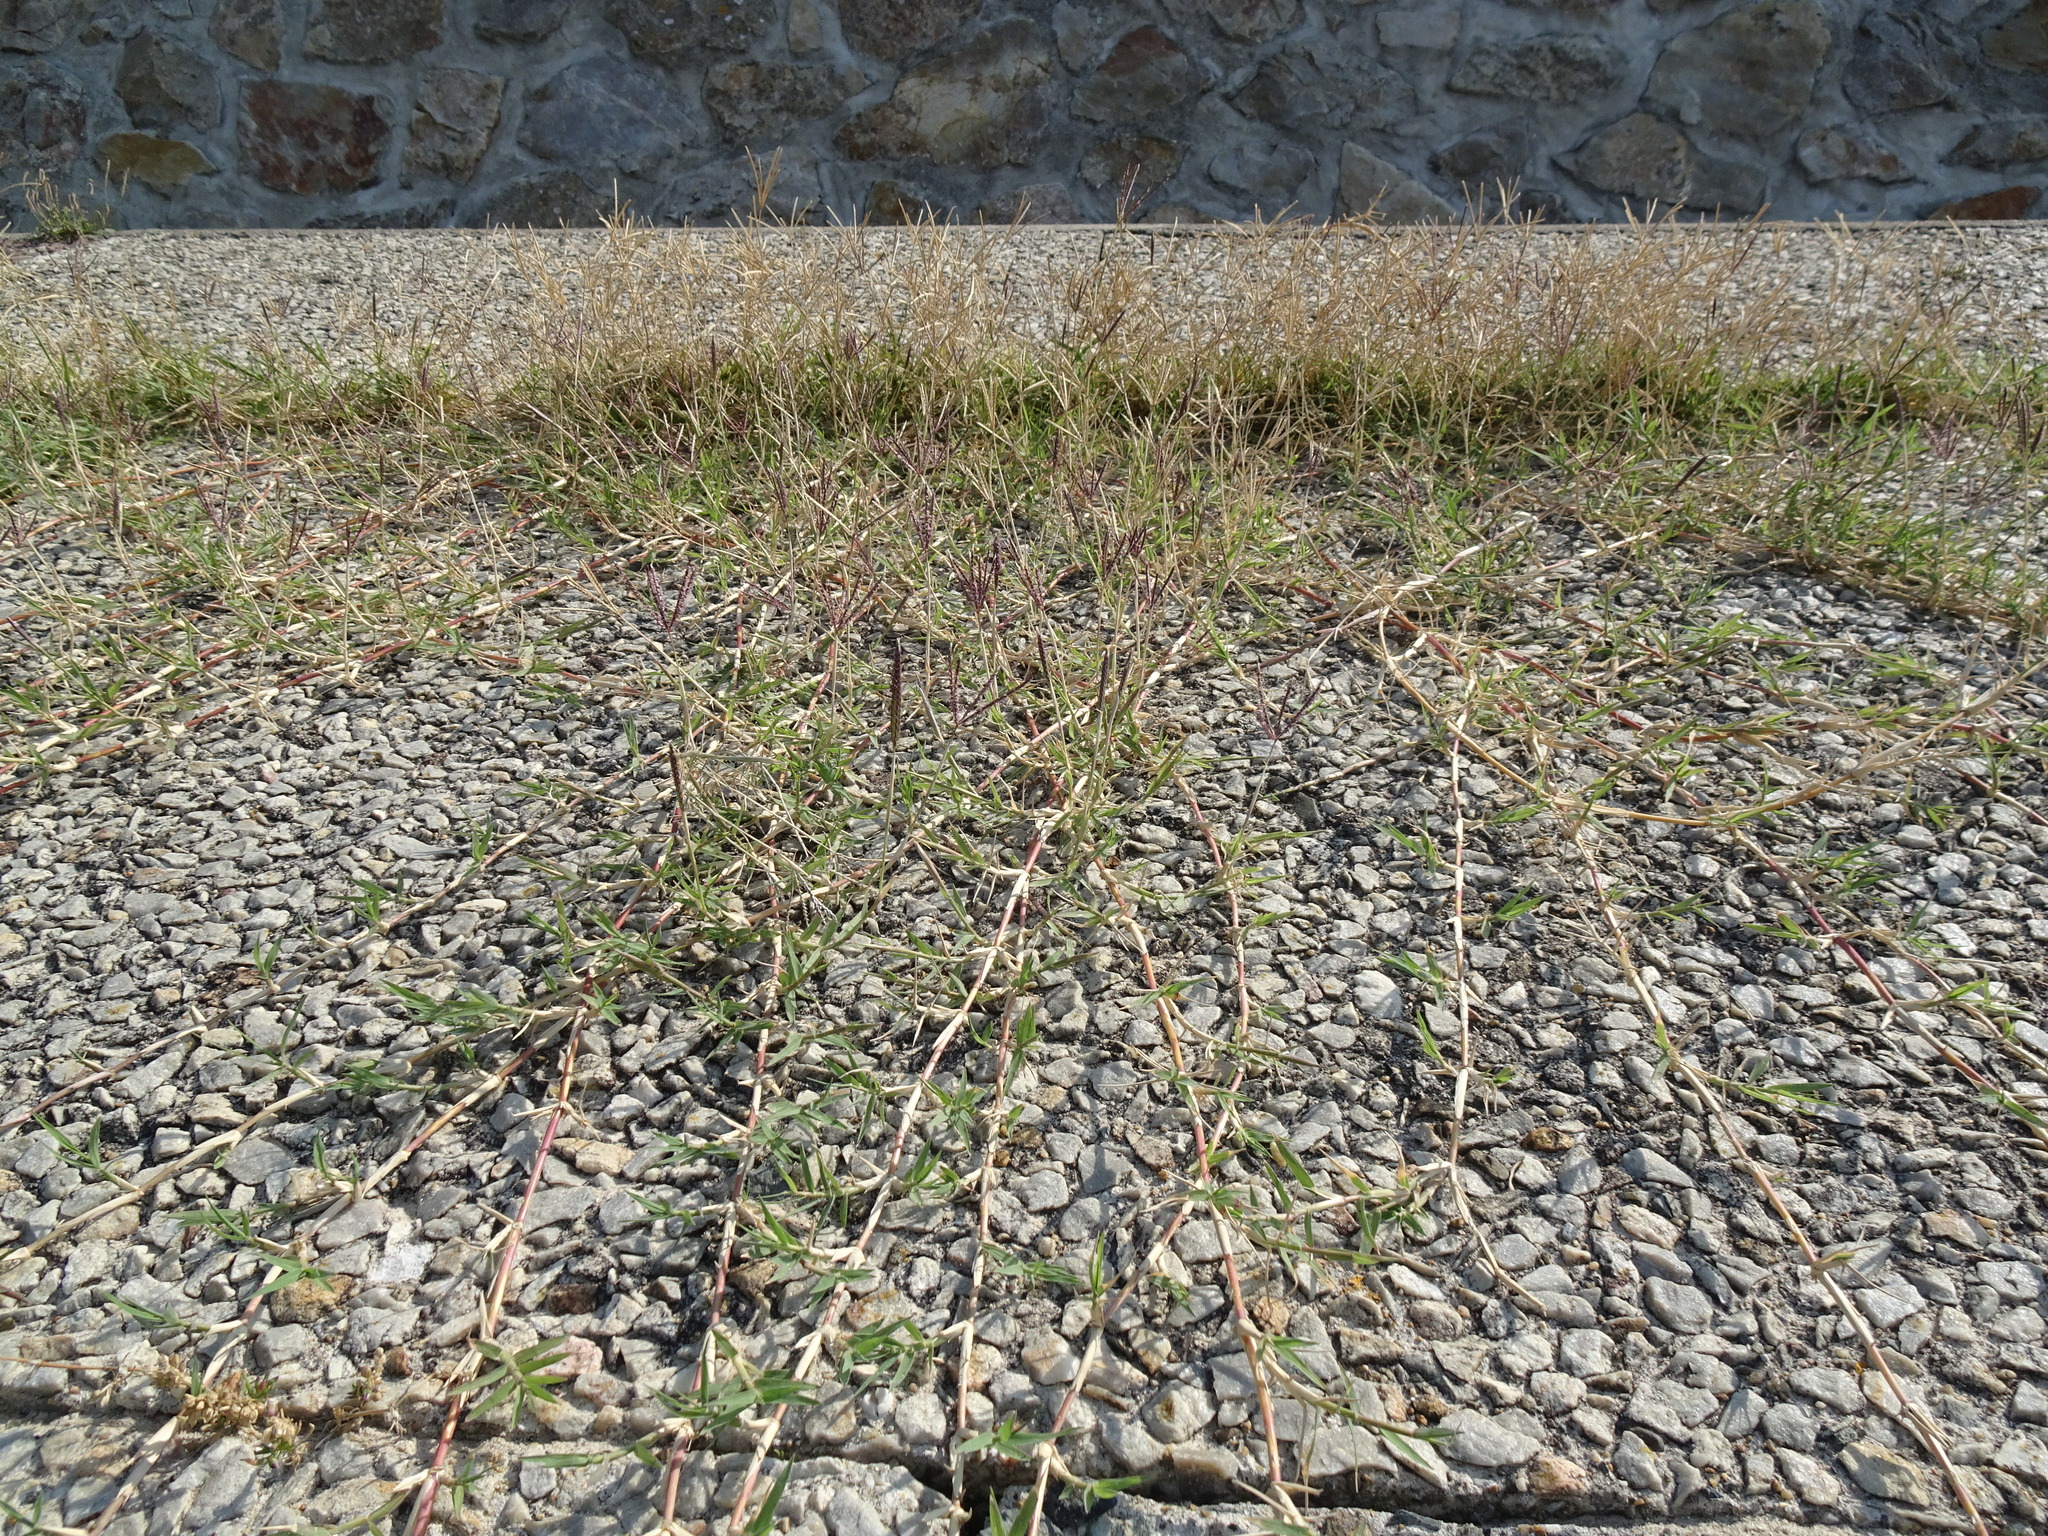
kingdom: Plantae
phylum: Tracheophyta
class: Liliopsida
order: Poales
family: Poaceae
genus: Cynodon
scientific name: Cynodon dactylon
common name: Bermuda grass
